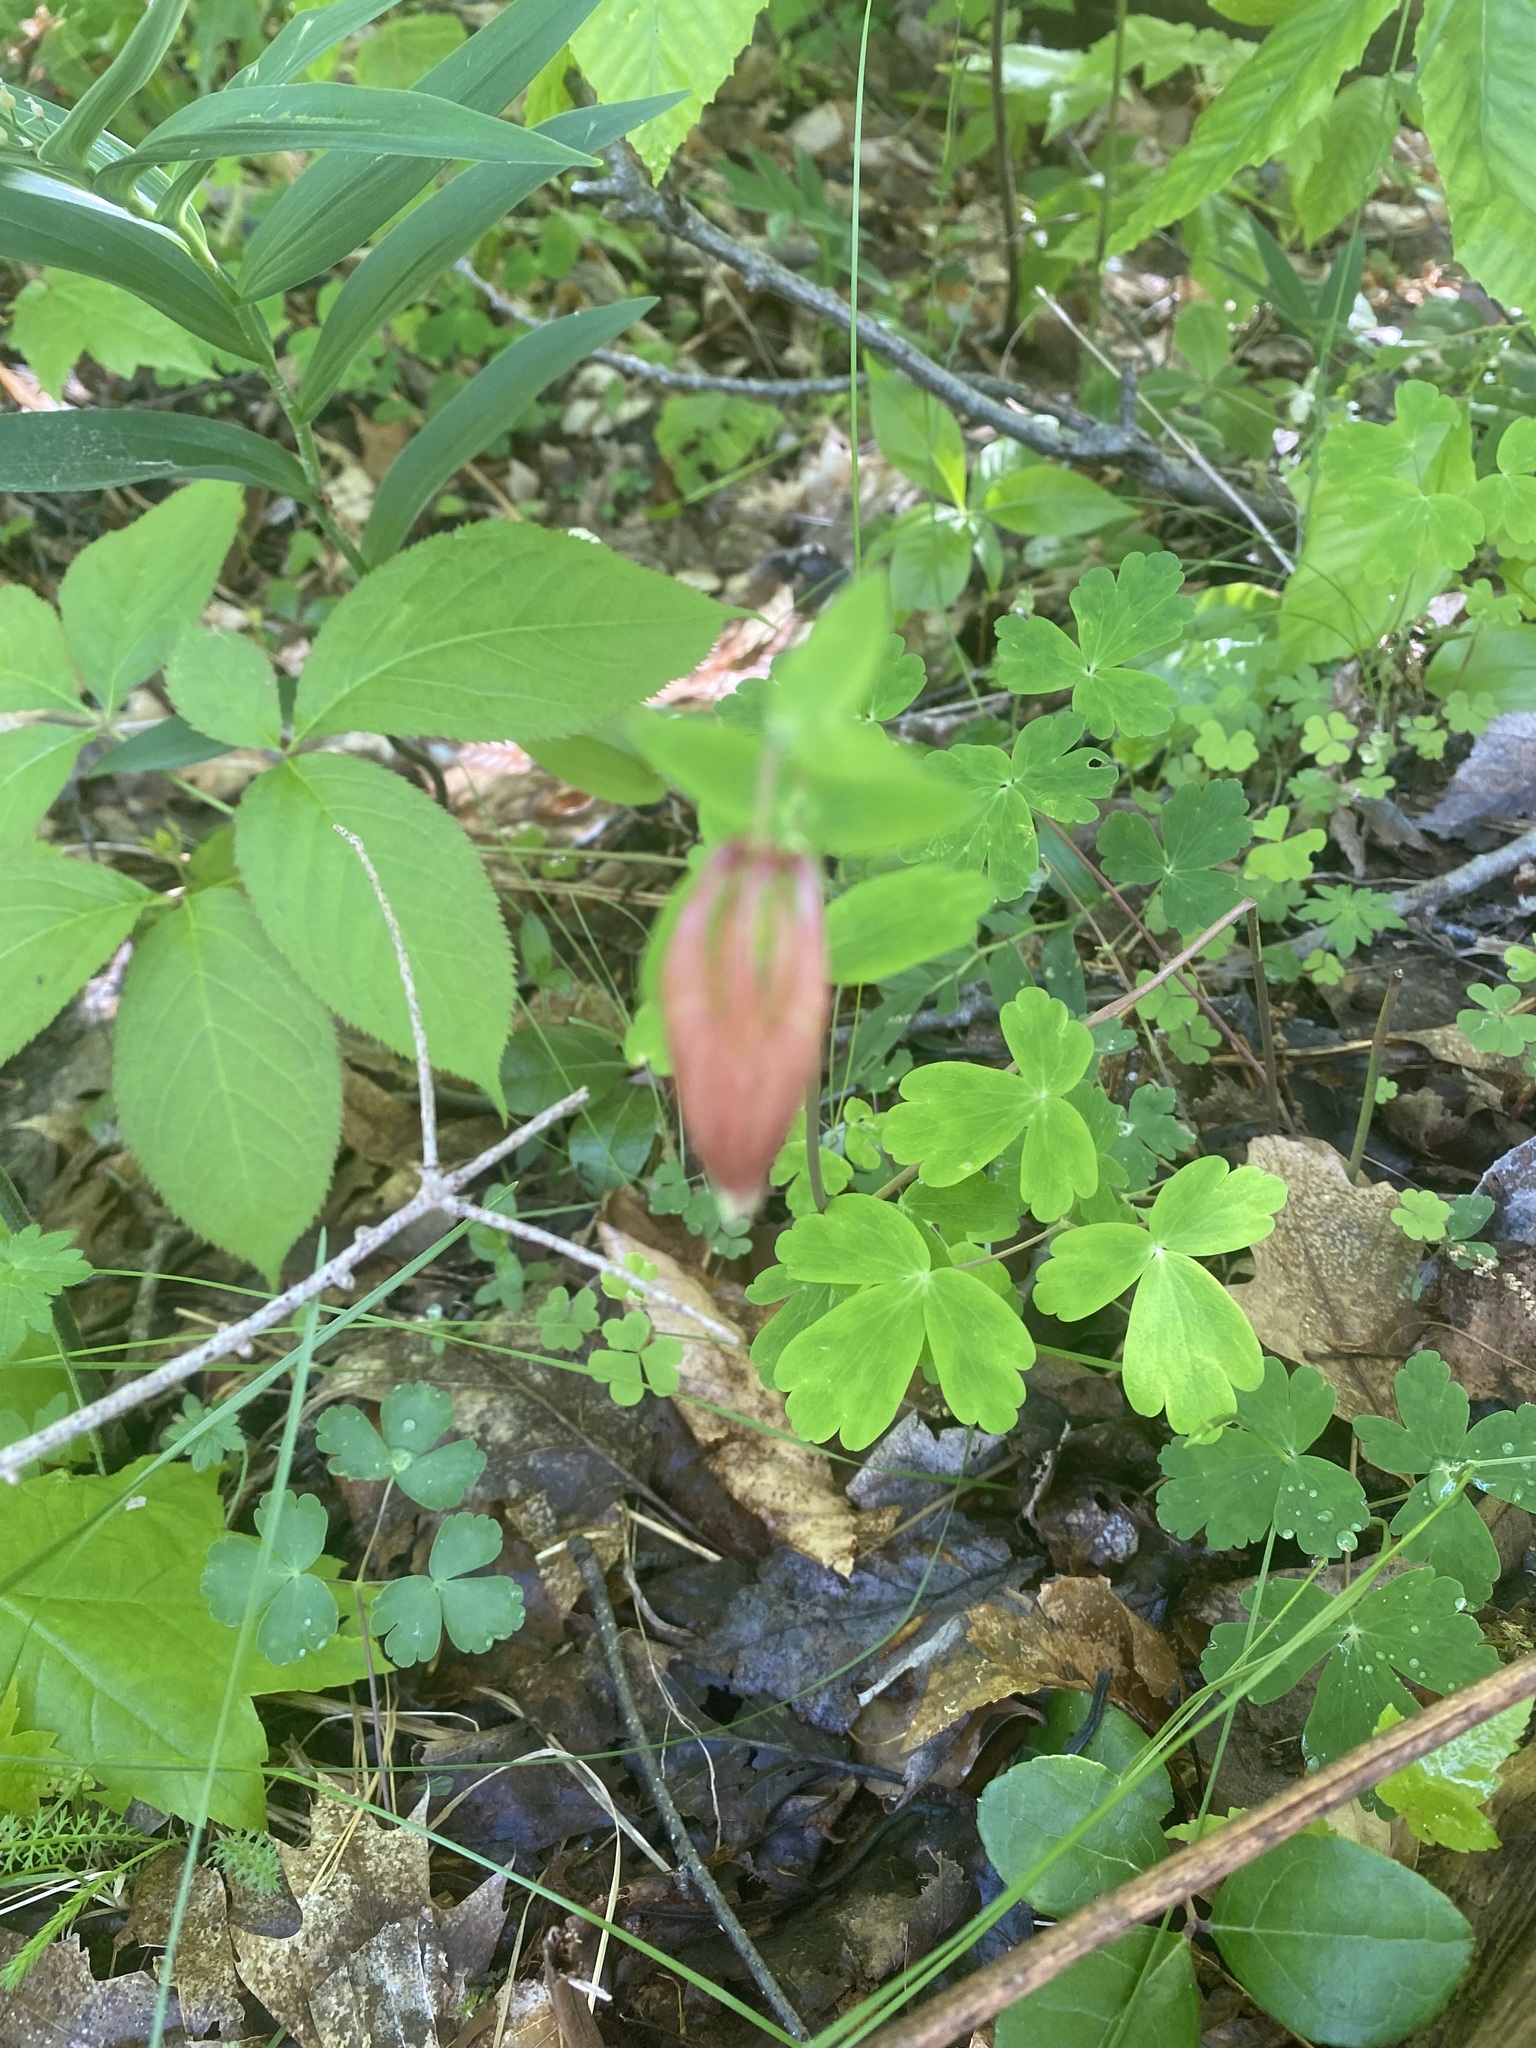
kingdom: Plantae
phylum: Tracheophyta
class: Magnoliopsida
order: Ranunculales
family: Ranunculaceae
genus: Aquilegia
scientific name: Aquilegia canadensis
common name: American columbine
